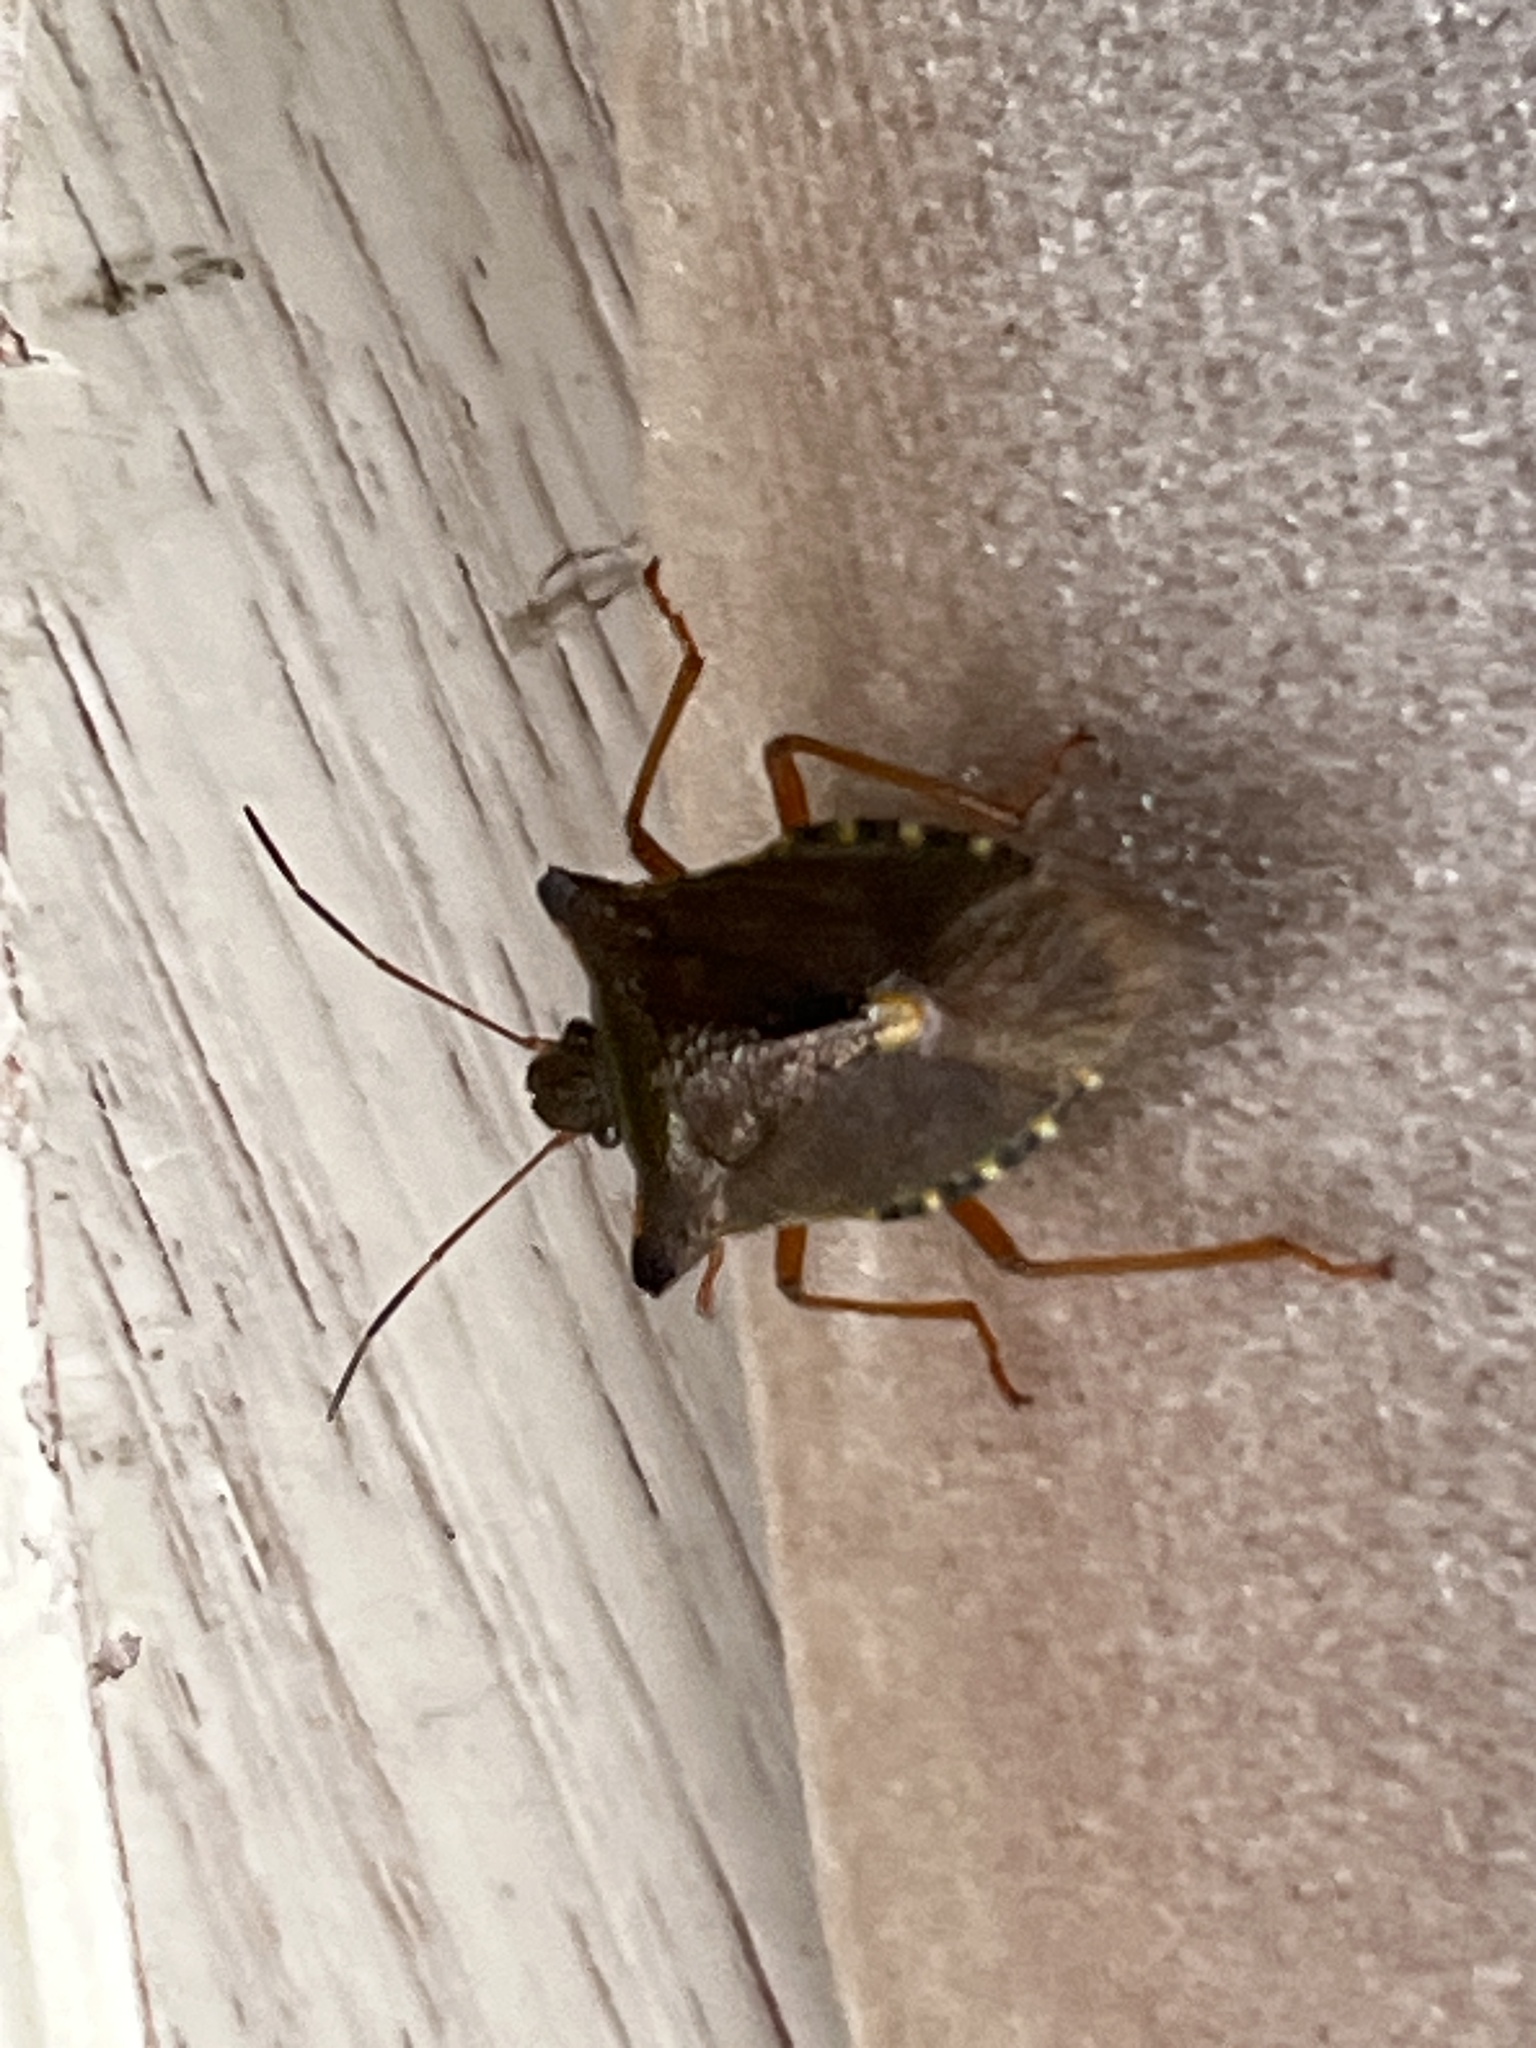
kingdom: Animalia
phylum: Arthropoda
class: Insecta
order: Hemiptera
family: Pentatomidae
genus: Pentatoma
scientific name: Pentatoma rufipes
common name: Forest bug
